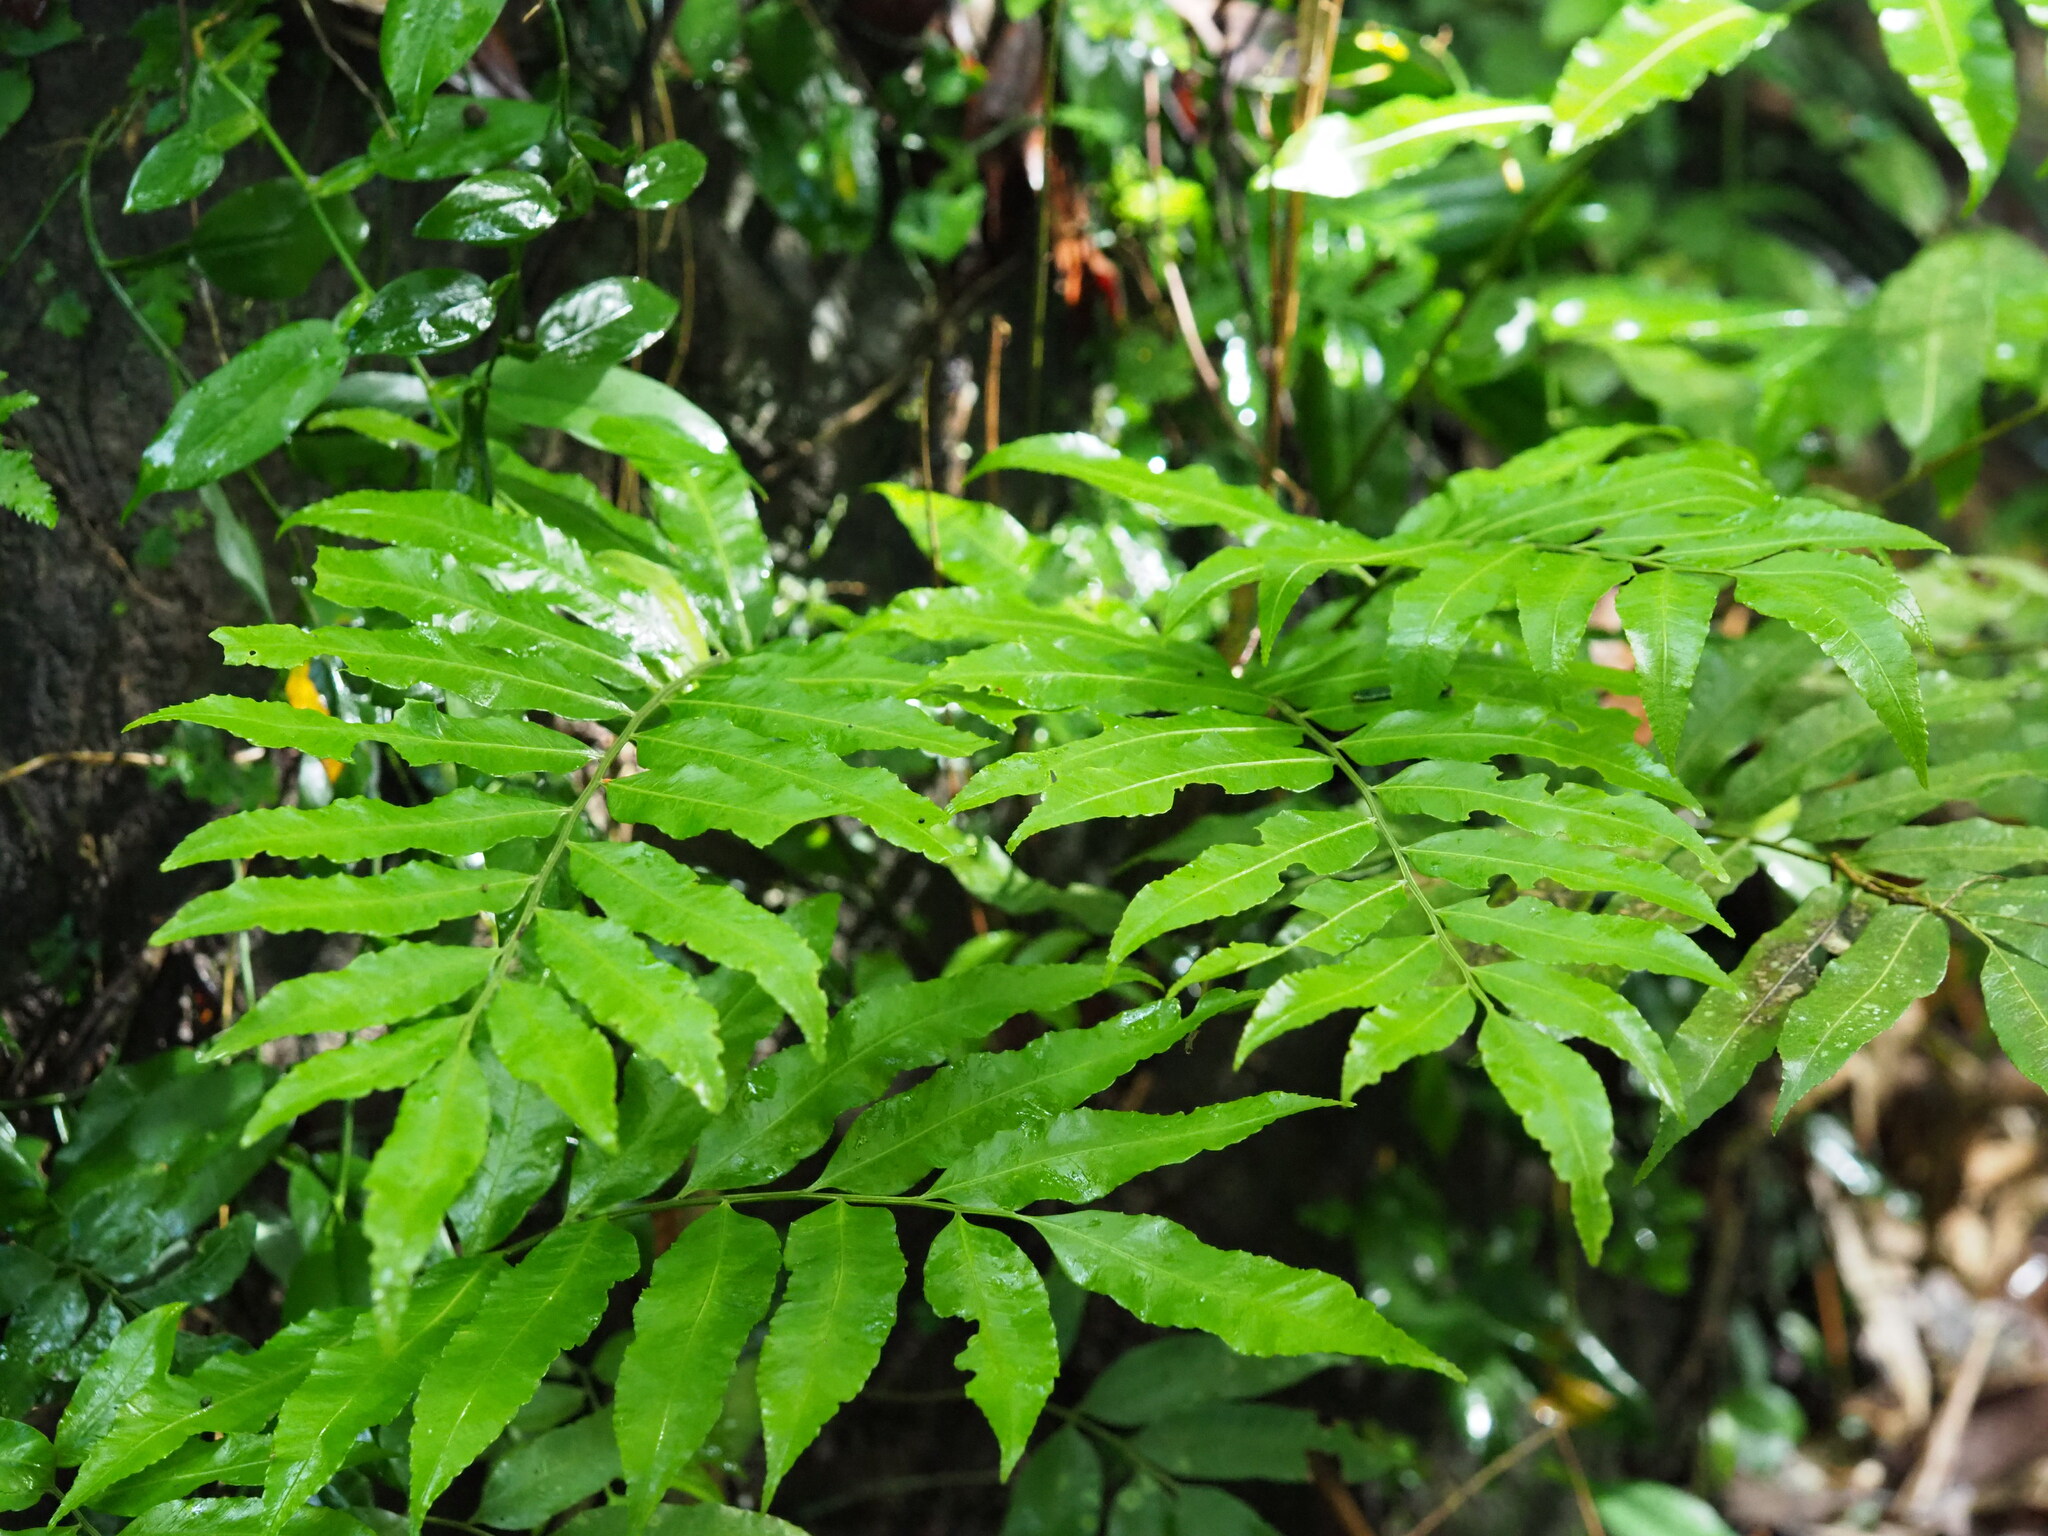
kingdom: Plantae
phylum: Tracheophyta
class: Polypodiopsida
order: Polypodiales
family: Dryopteridaceae
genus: Bolbitis
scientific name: Bolbitis scalpturata
